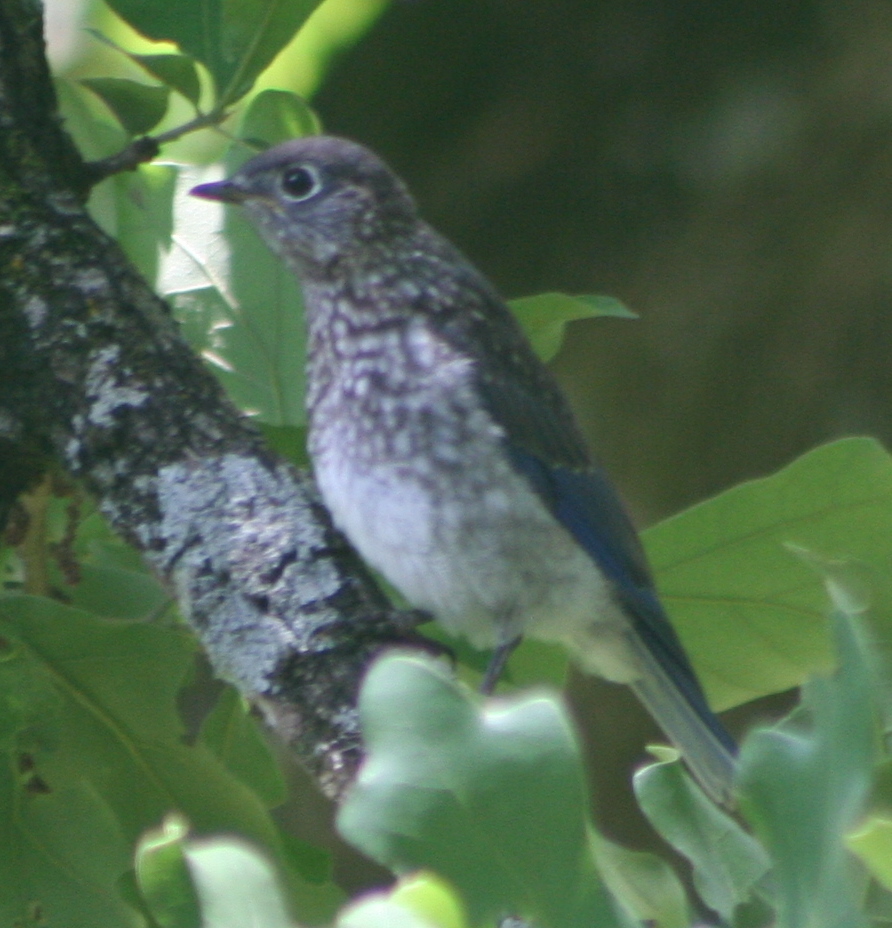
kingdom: Animalia
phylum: Chordata
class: Aves
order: Passeriformes
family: Turdidae
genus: Sialia
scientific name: Sialia sialis
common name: Eastern bluebird
